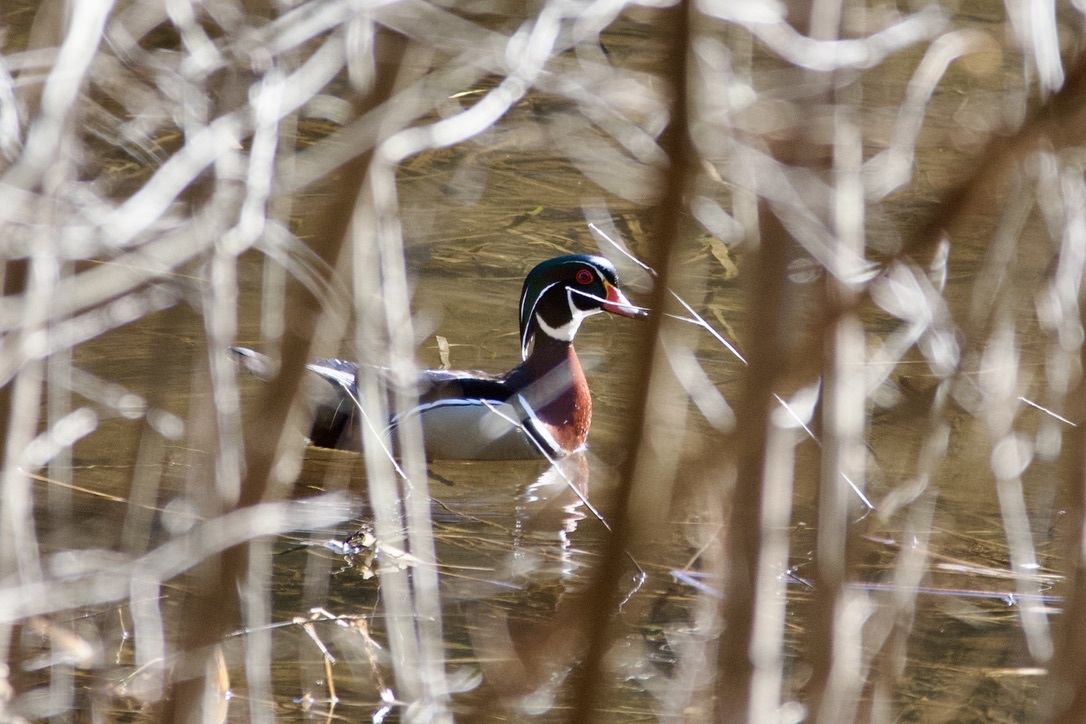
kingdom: Animalia
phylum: Chordata
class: Aves
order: Anseriformes
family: Anatidae
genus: Aix
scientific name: Aix sponsa
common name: Wood duck
